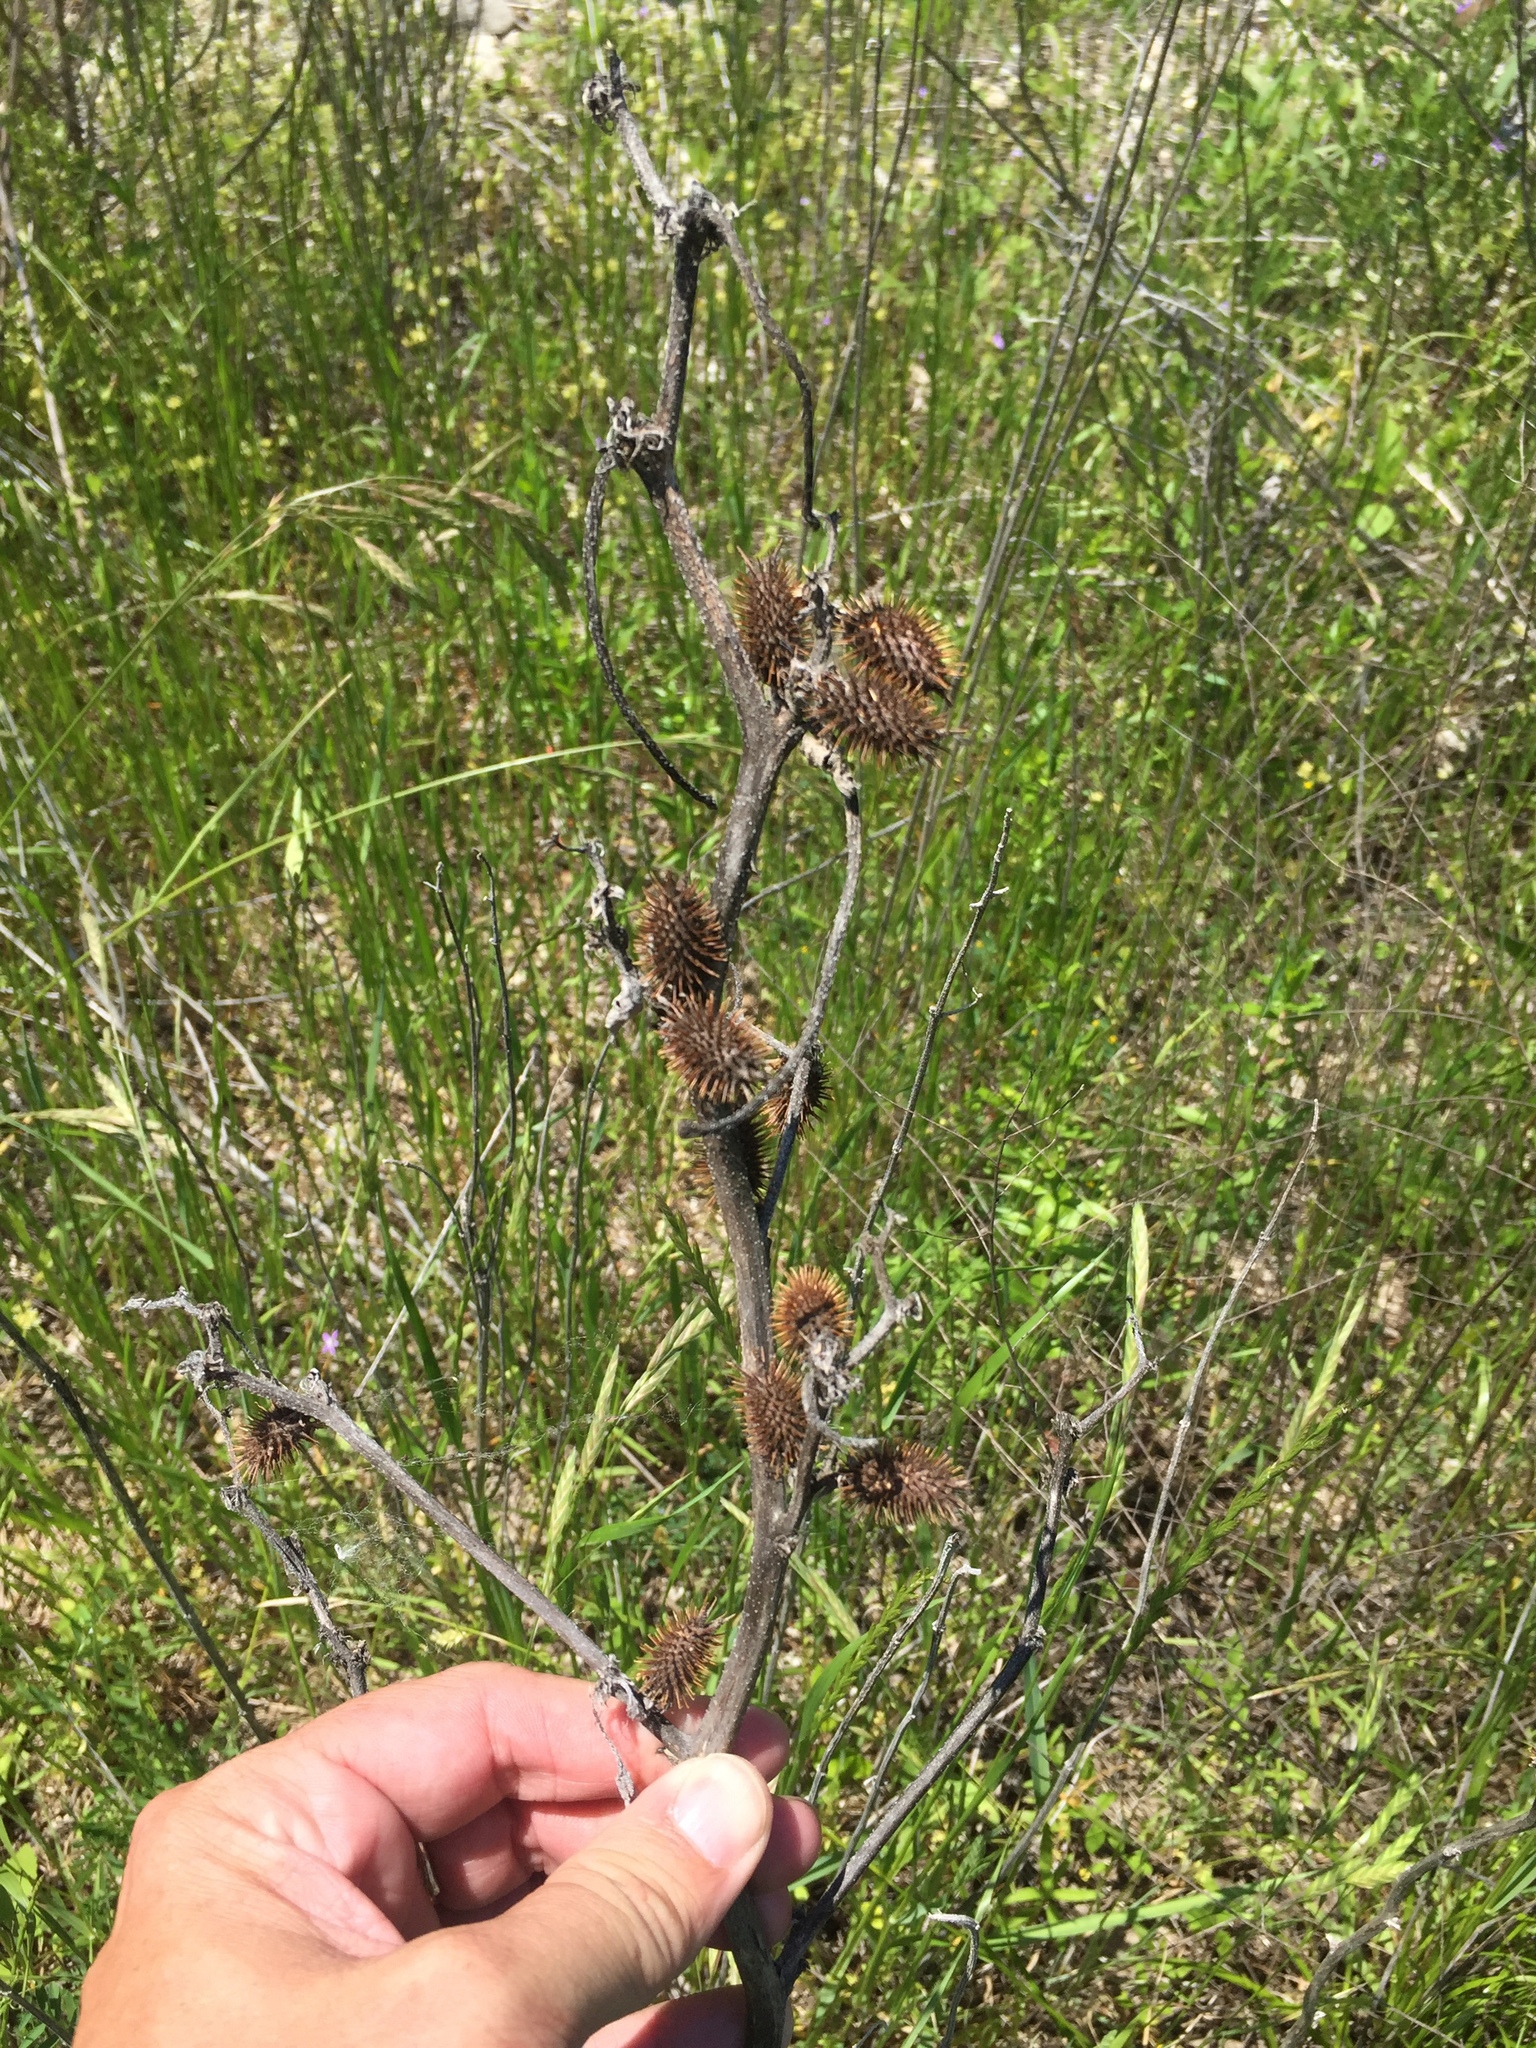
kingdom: Plantae
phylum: Tracheophyta
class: Magnoliopsida
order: Asterales
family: Asteraceae
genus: Xanthium
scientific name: Xanthium strumarium
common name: Rough cocklebur
